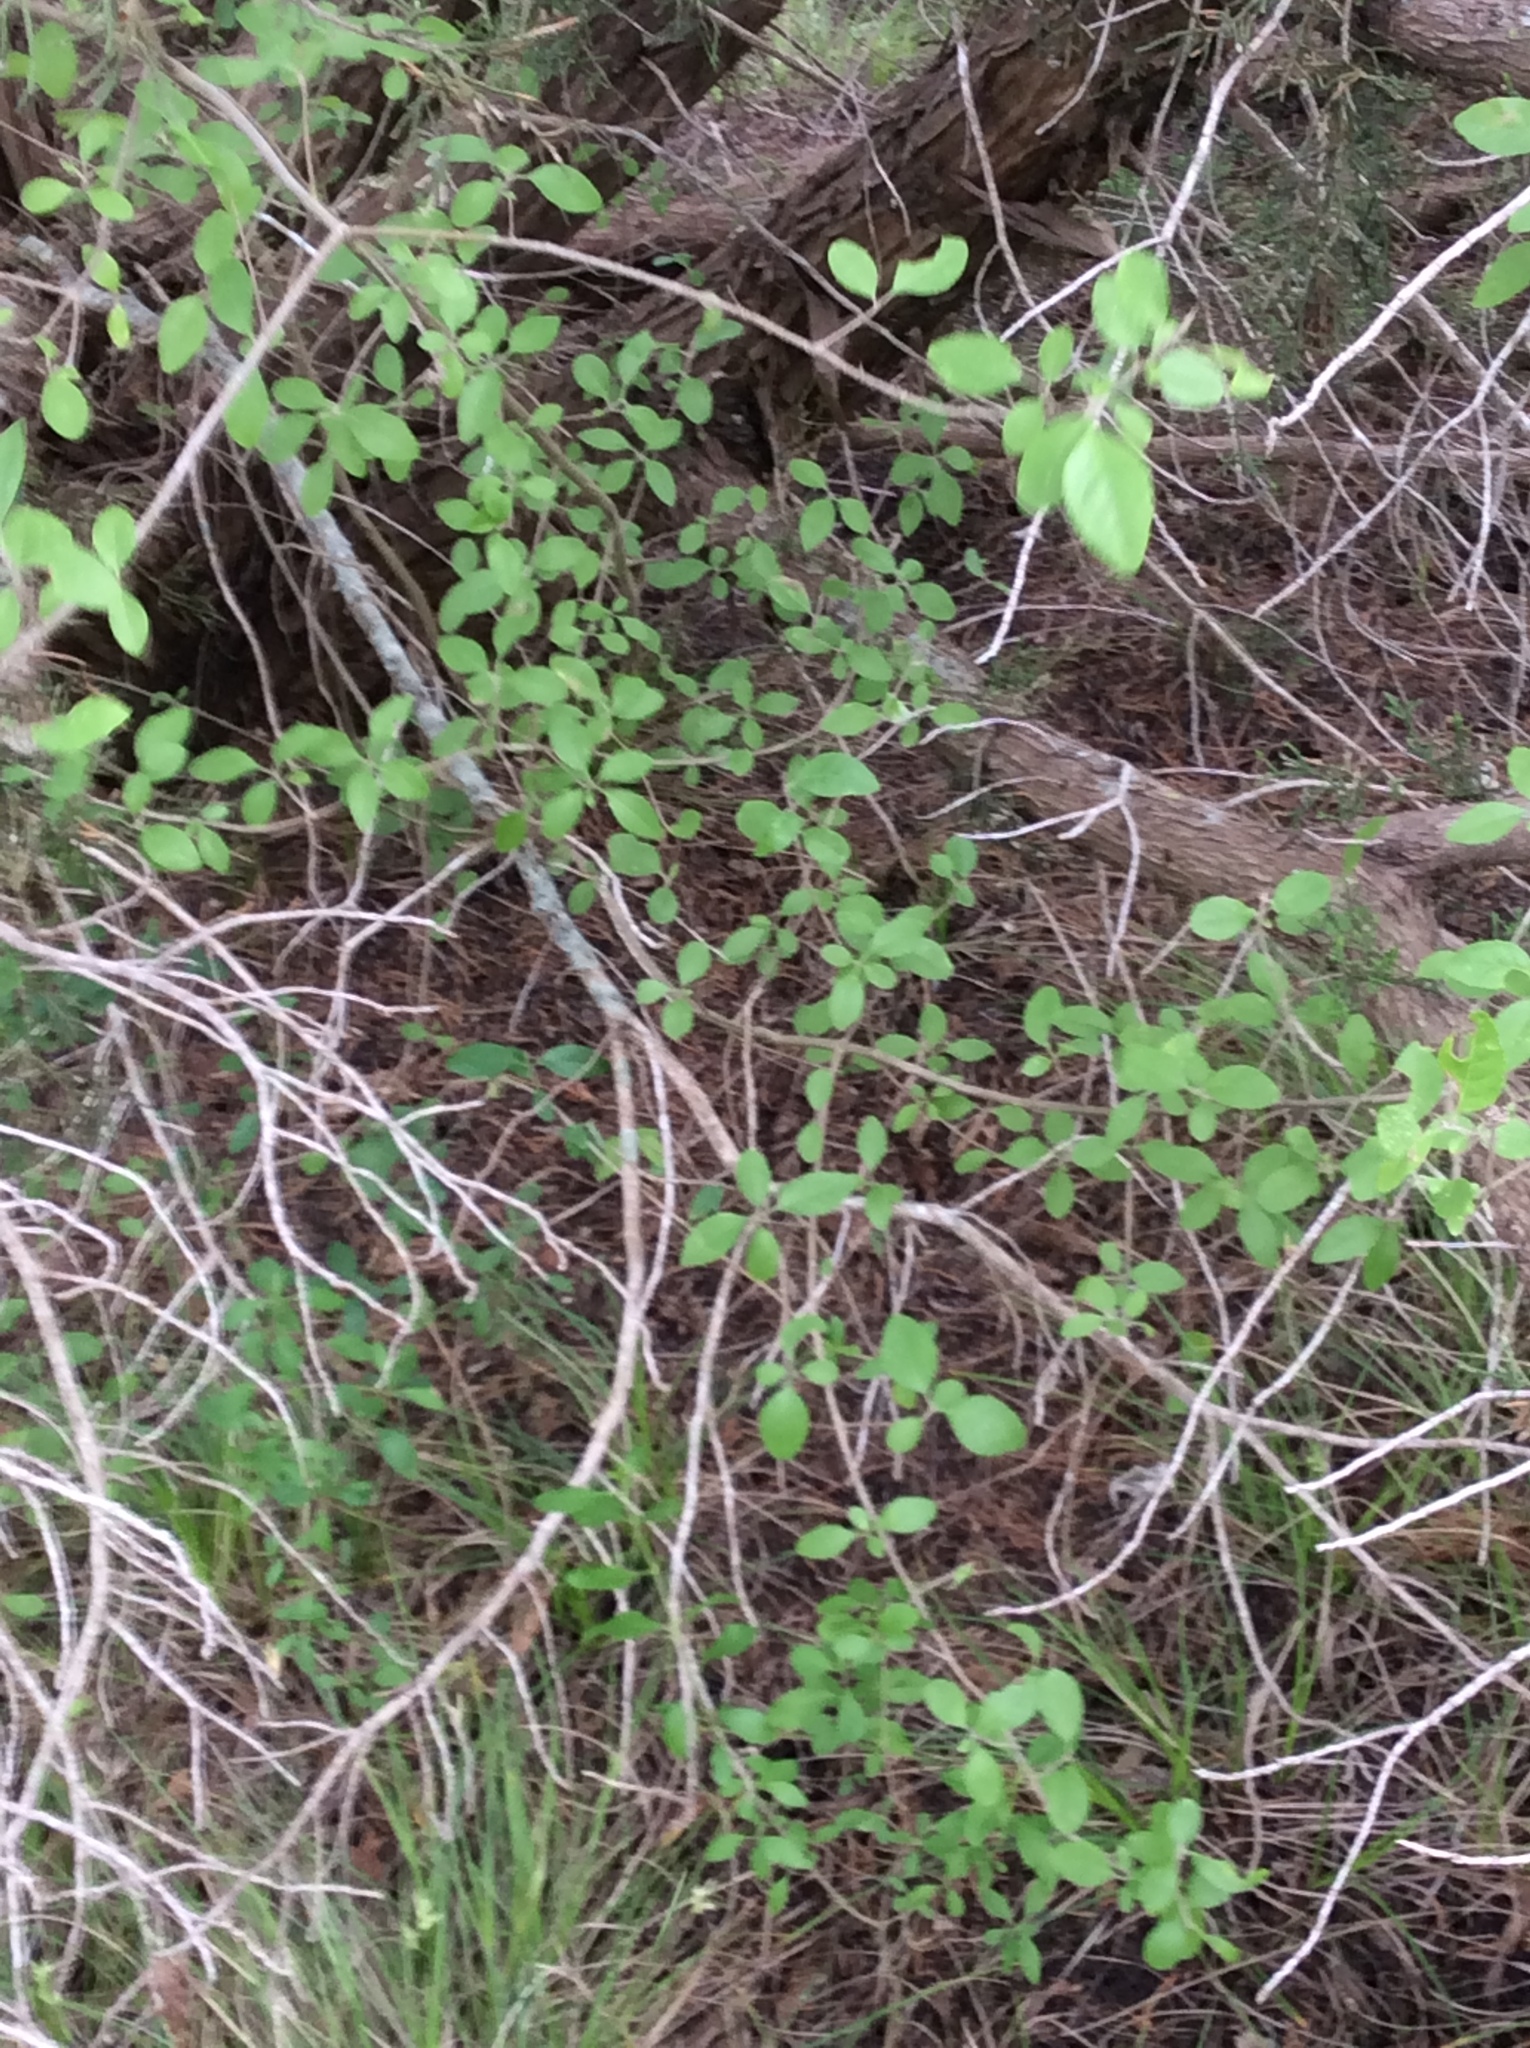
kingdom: Plantae
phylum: Tracheophyta
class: Magnoliopsida
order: Lamiales
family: Oleaceae
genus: Forestiera
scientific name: Forestiera pubescens
